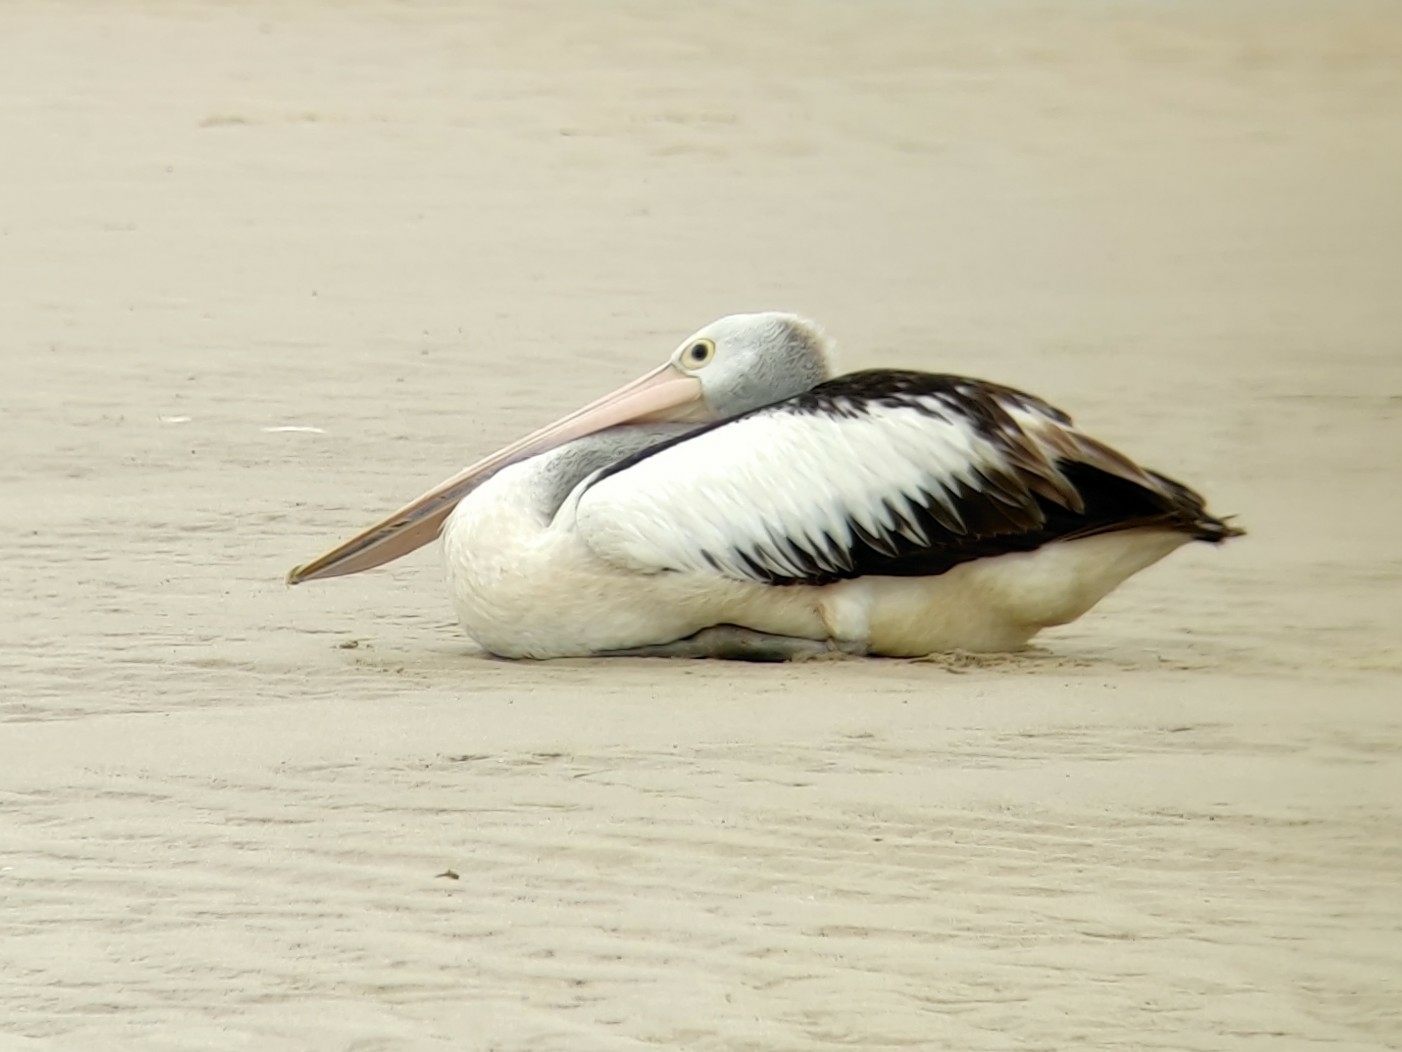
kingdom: Animalia
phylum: Chordata
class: Aves
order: Pelecaniformes
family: Pelecanidae
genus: Pelecanus
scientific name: Pelecanus conspicillatus
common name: Australian pelican
